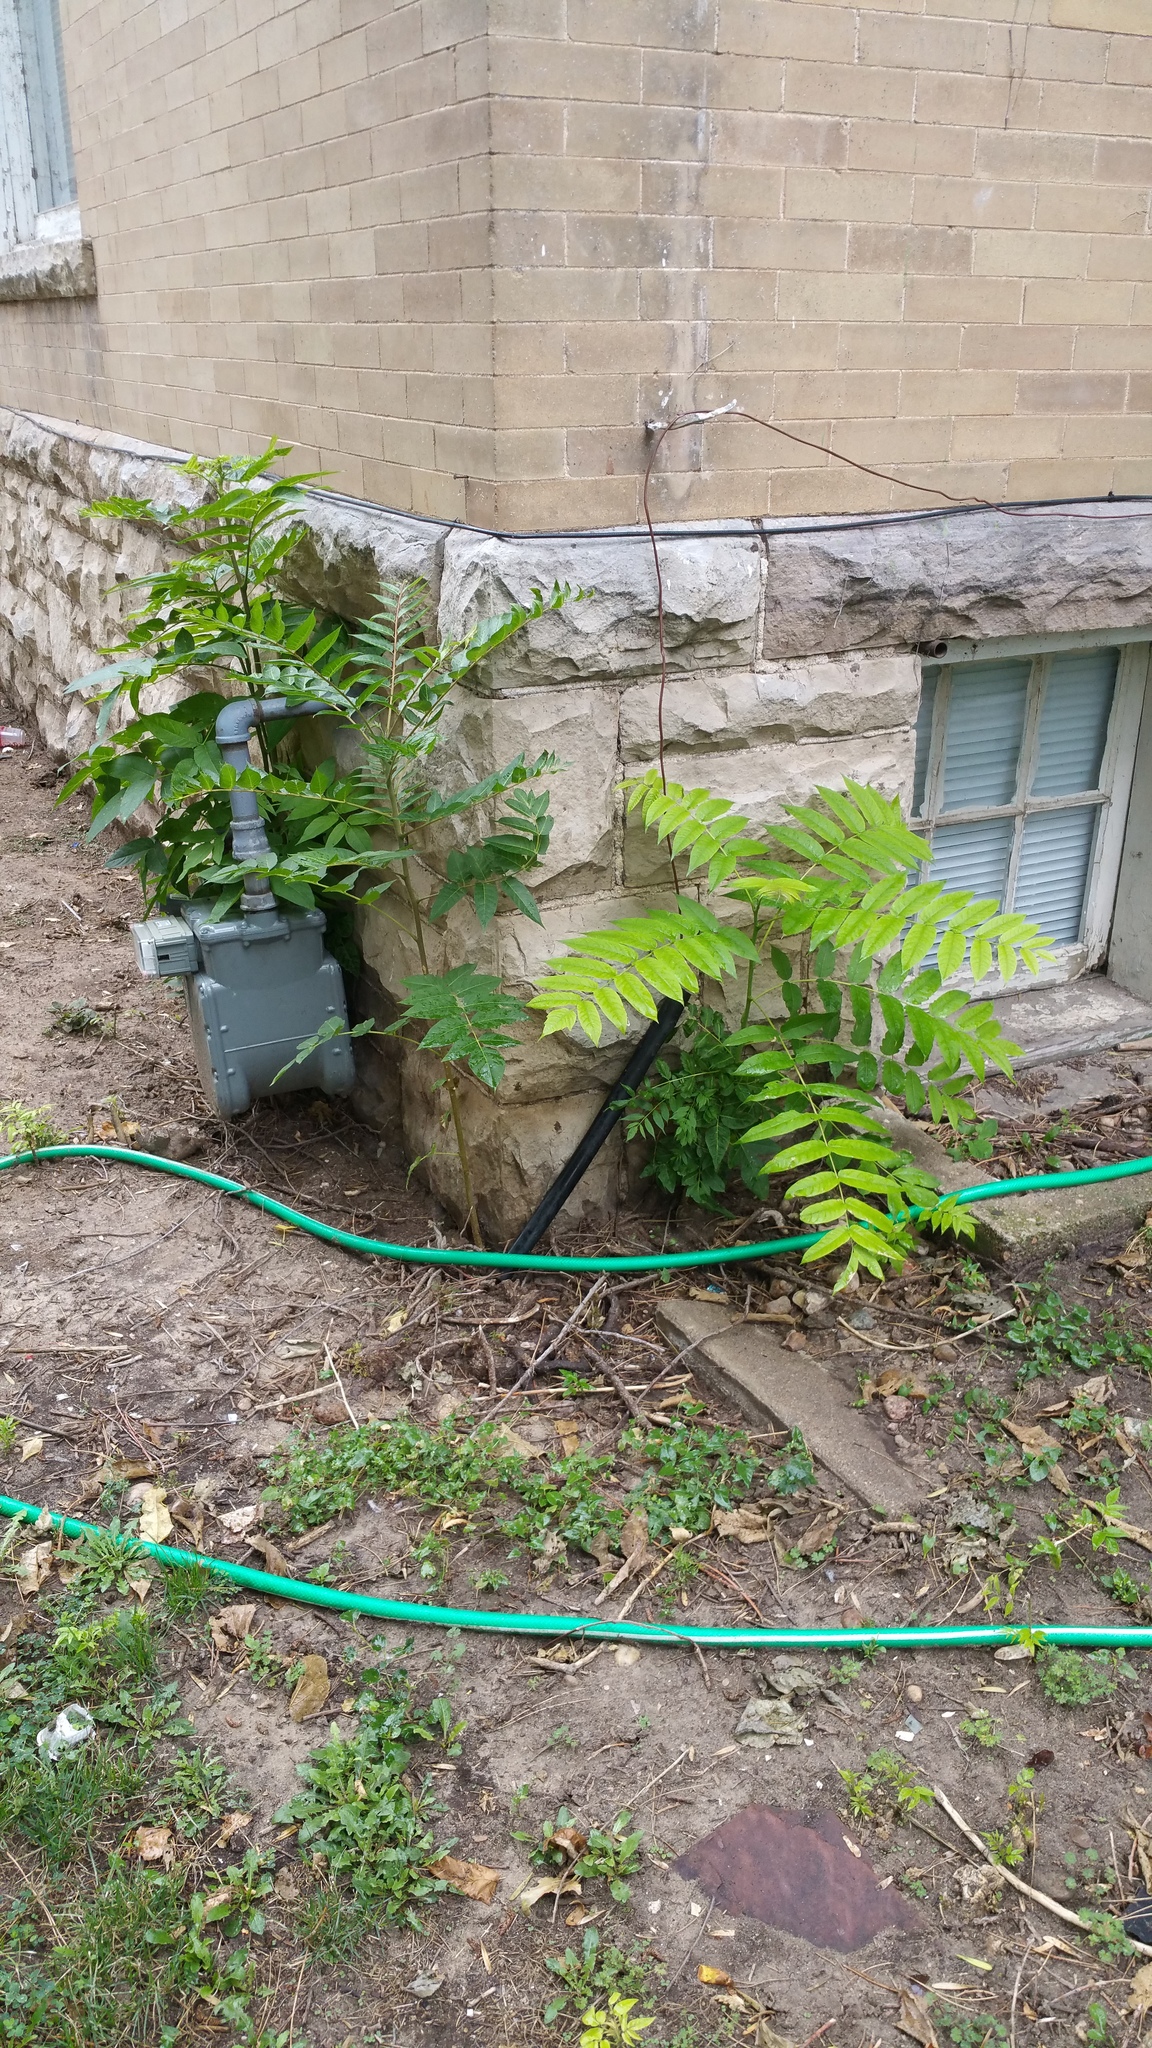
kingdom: Plantae
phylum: Tracheophyta
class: Magnoliopsida
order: Sapindales
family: Simaroubaceae
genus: Ailanthus
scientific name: Ailanthus altissima
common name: Tree-of-heaven
